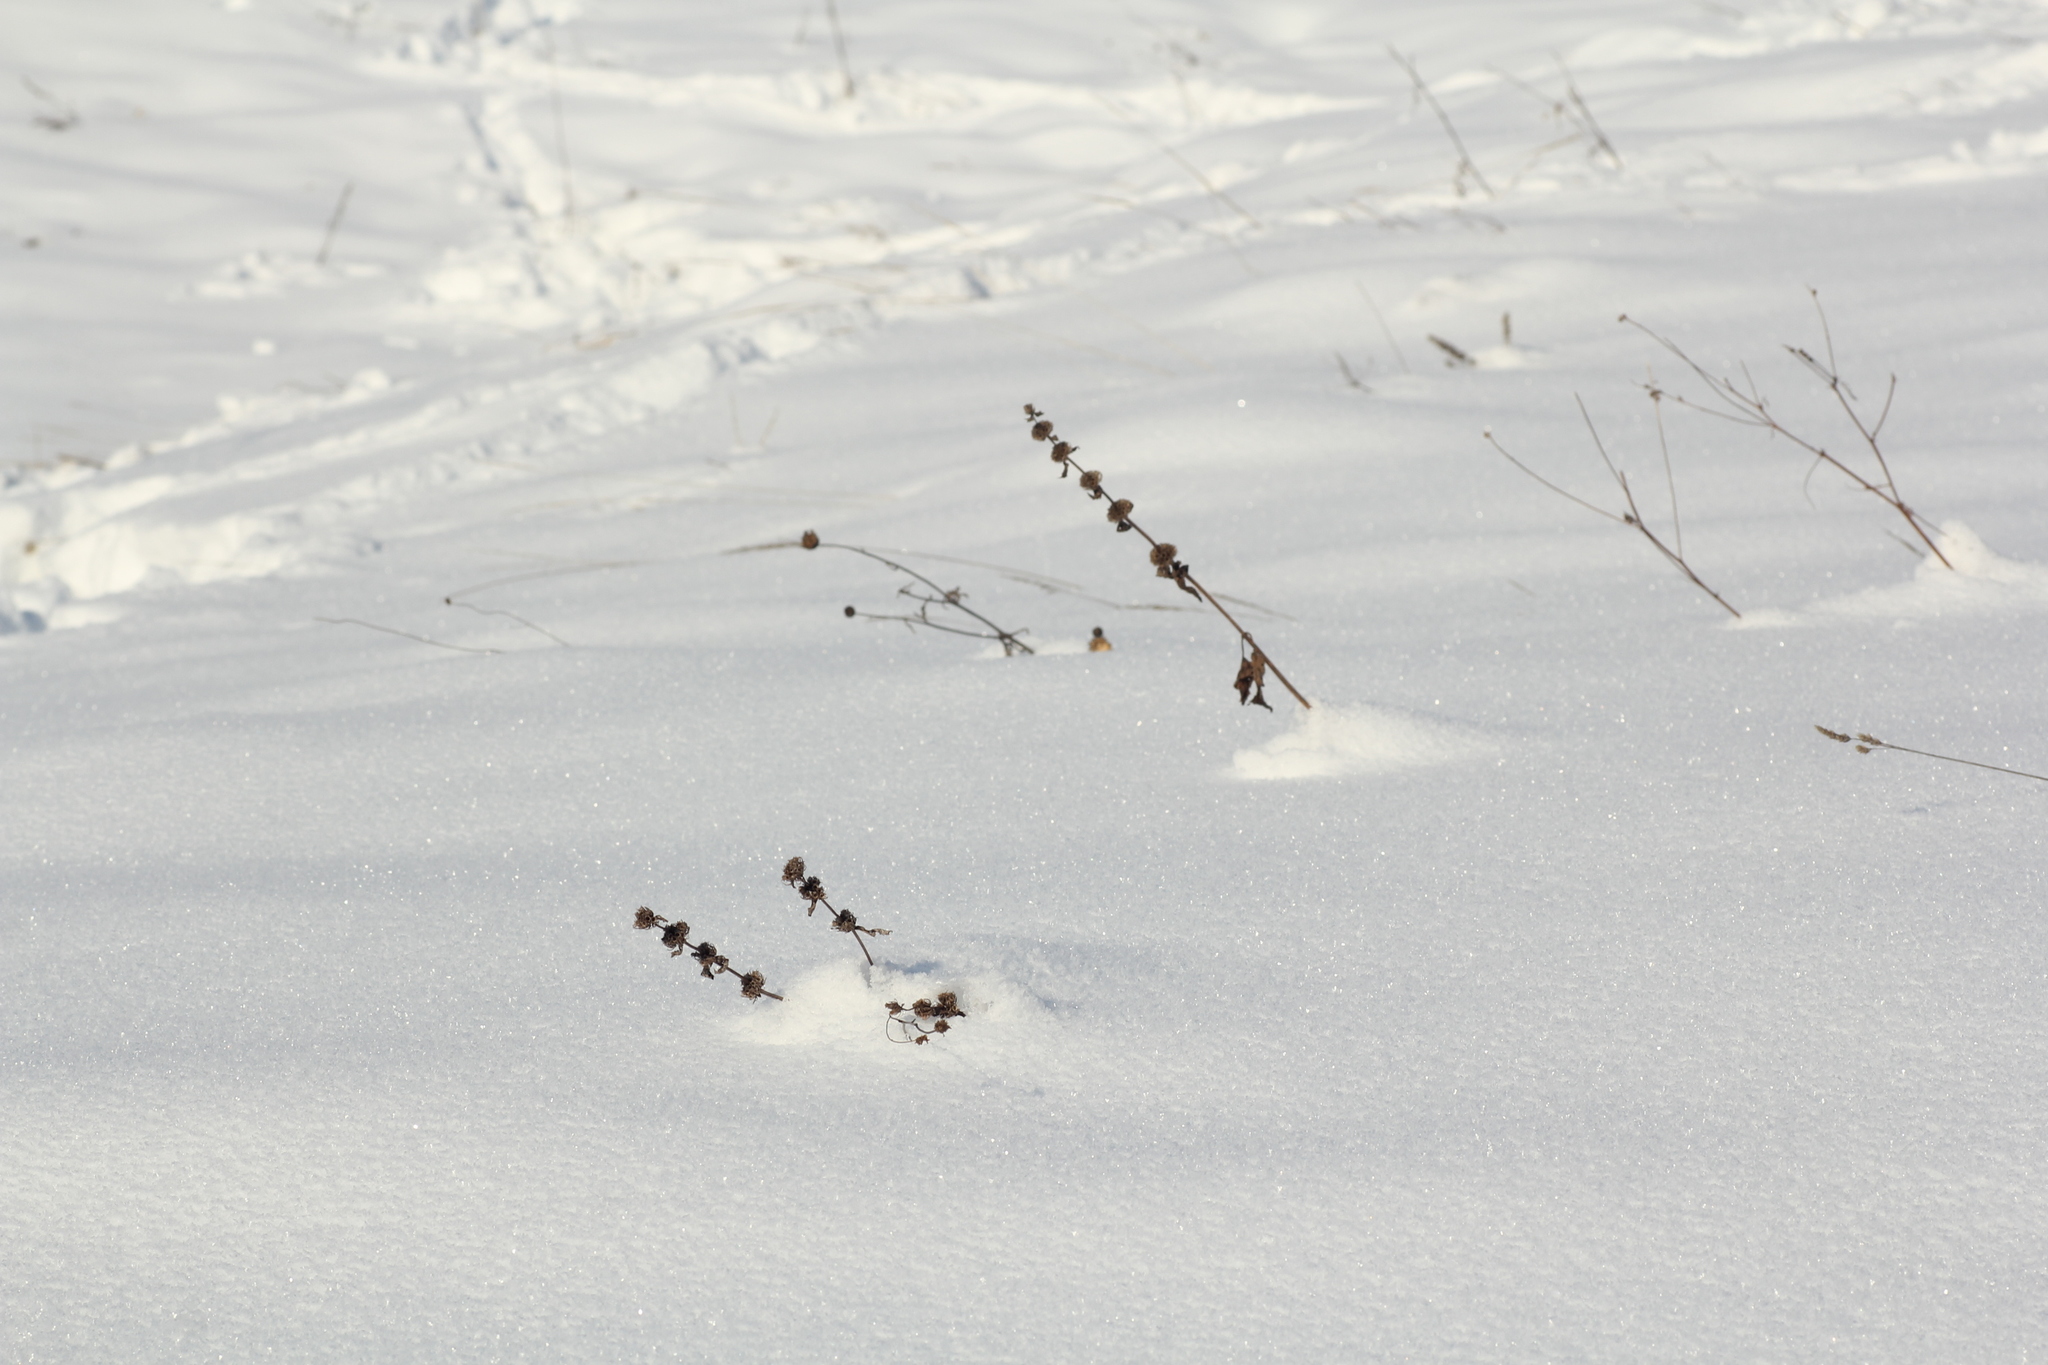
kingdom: Plantae
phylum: Tracheophyta
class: Magnoliopsida
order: Lamiales
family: Lamiaceae
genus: Phlomoides
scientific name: Phlomoides tuberosa
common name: Tuberous jerusalem sage
